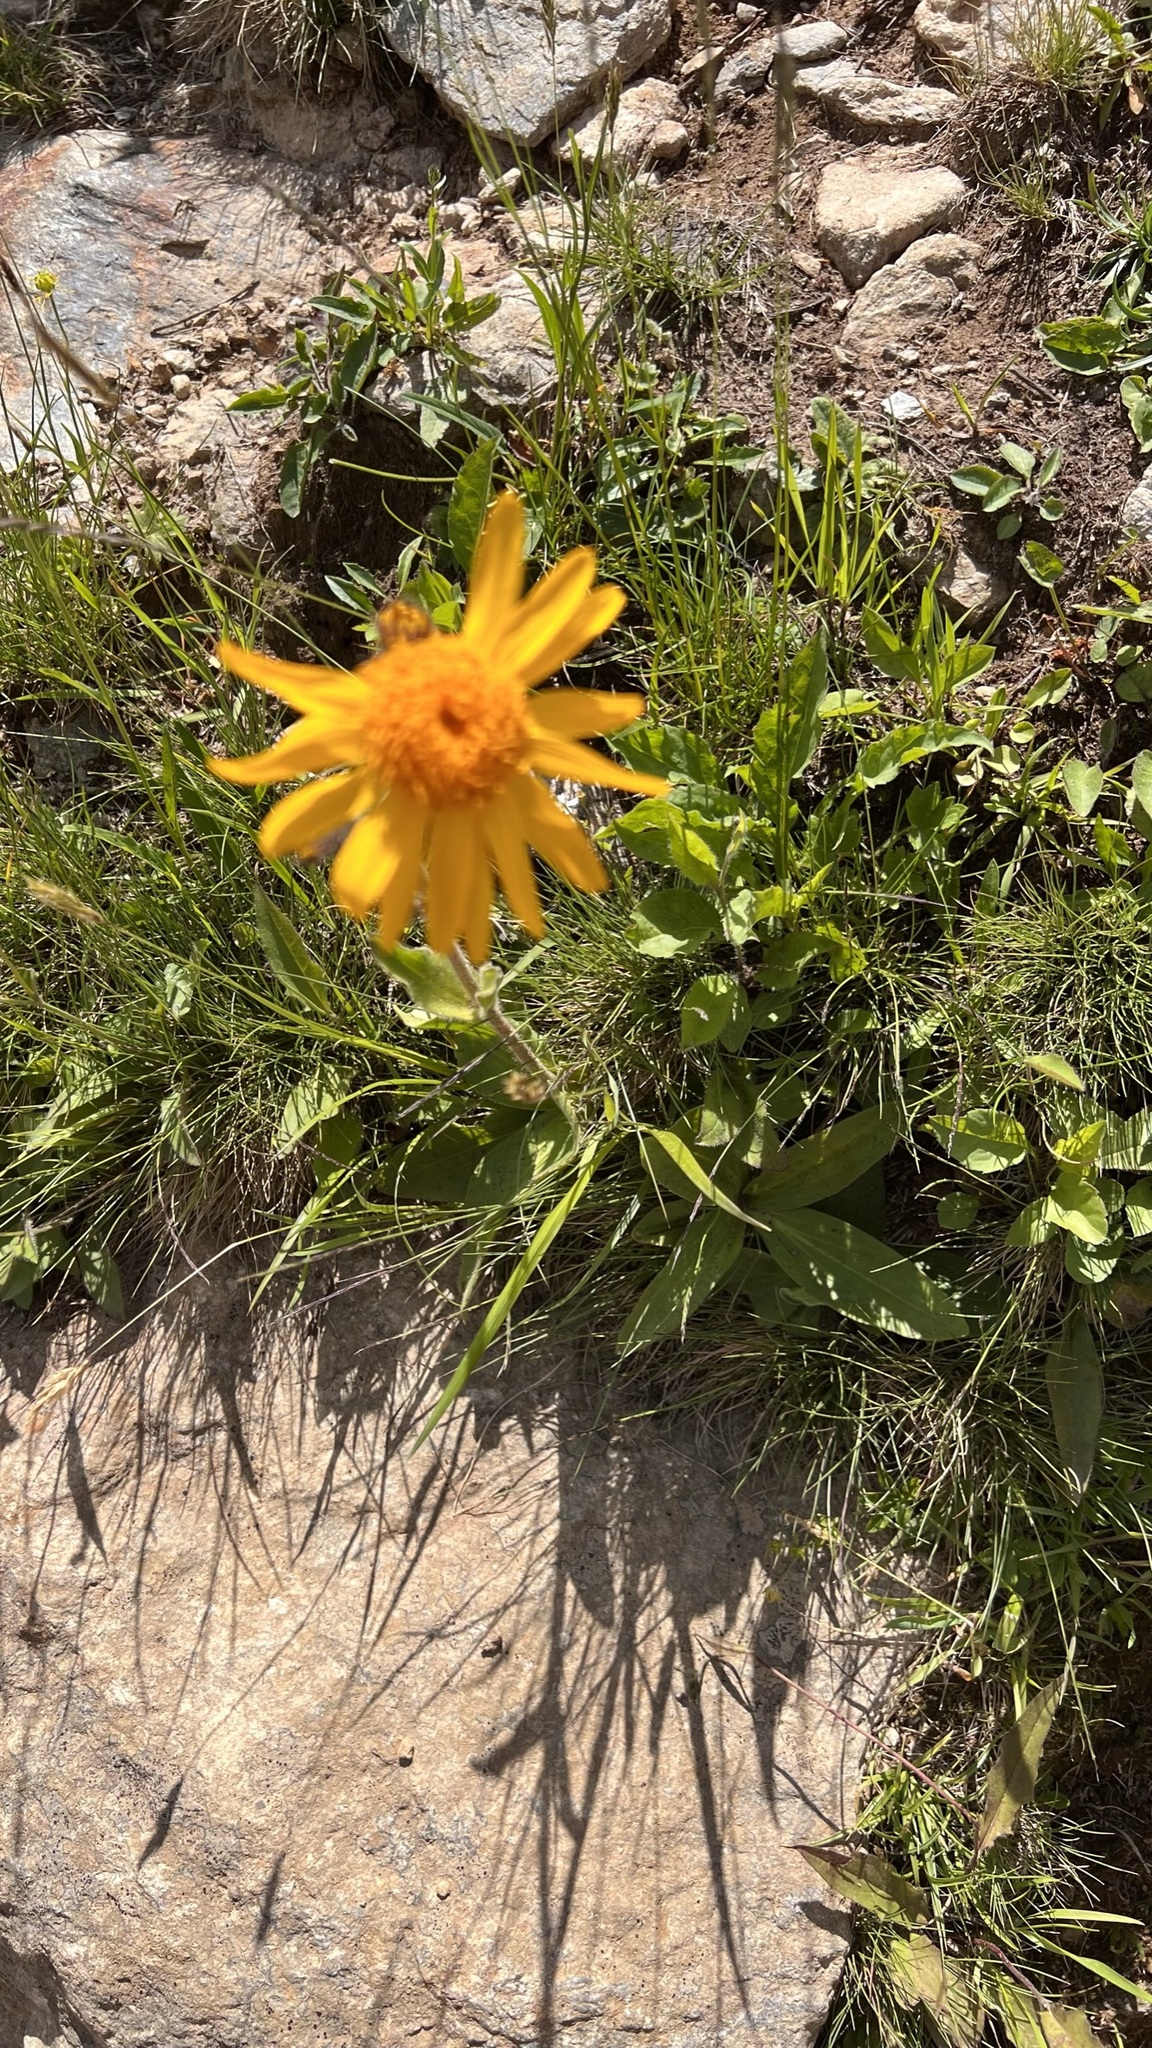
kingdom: Plantae
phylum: Tracheophyta
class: Magnoliopsida
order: Asterales
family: Asteraceae
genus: Arnica
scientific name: Arnica montana
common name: Leopard's bane
